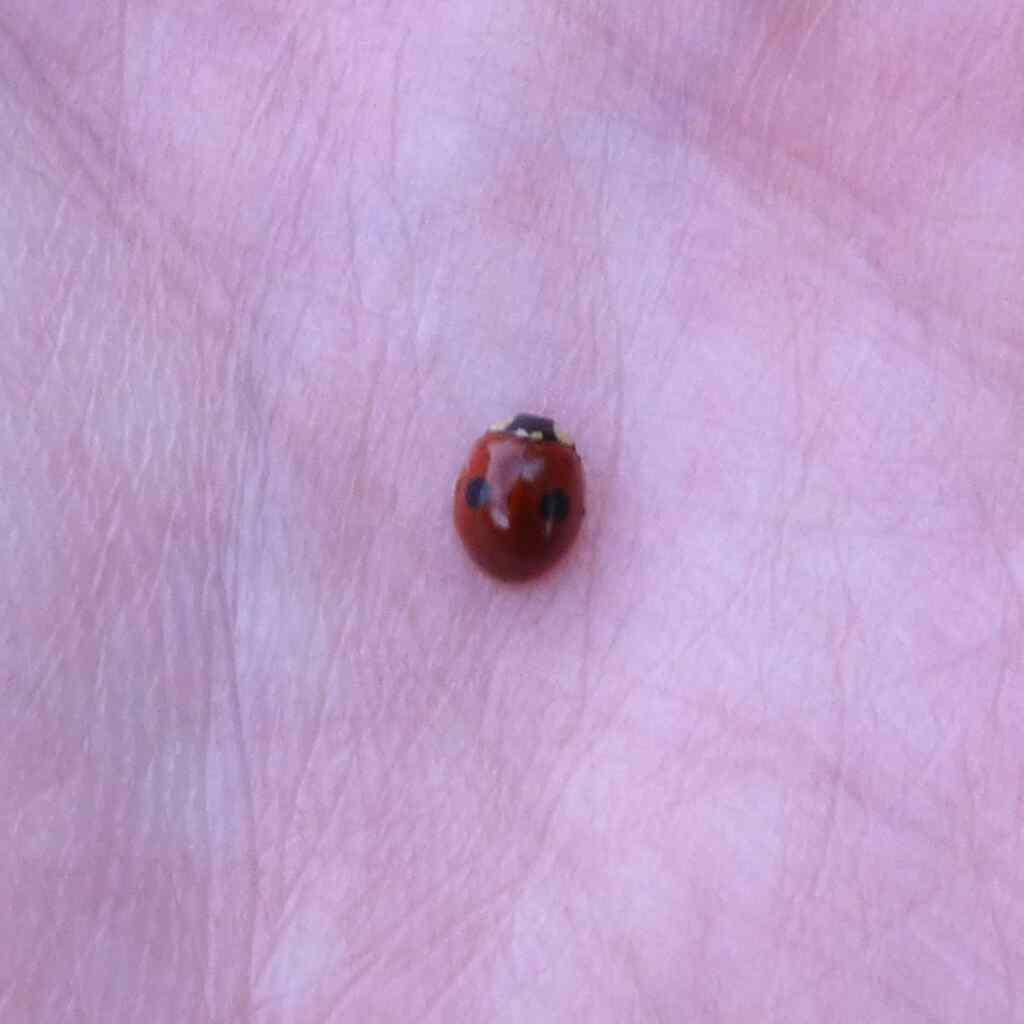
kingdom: Animalia
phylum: Arthropoda
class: Insecta
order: Coleoptera
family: Coccinellidae
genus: Adalia
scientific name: Adalia bipunctata
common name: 2-spot ladybird
